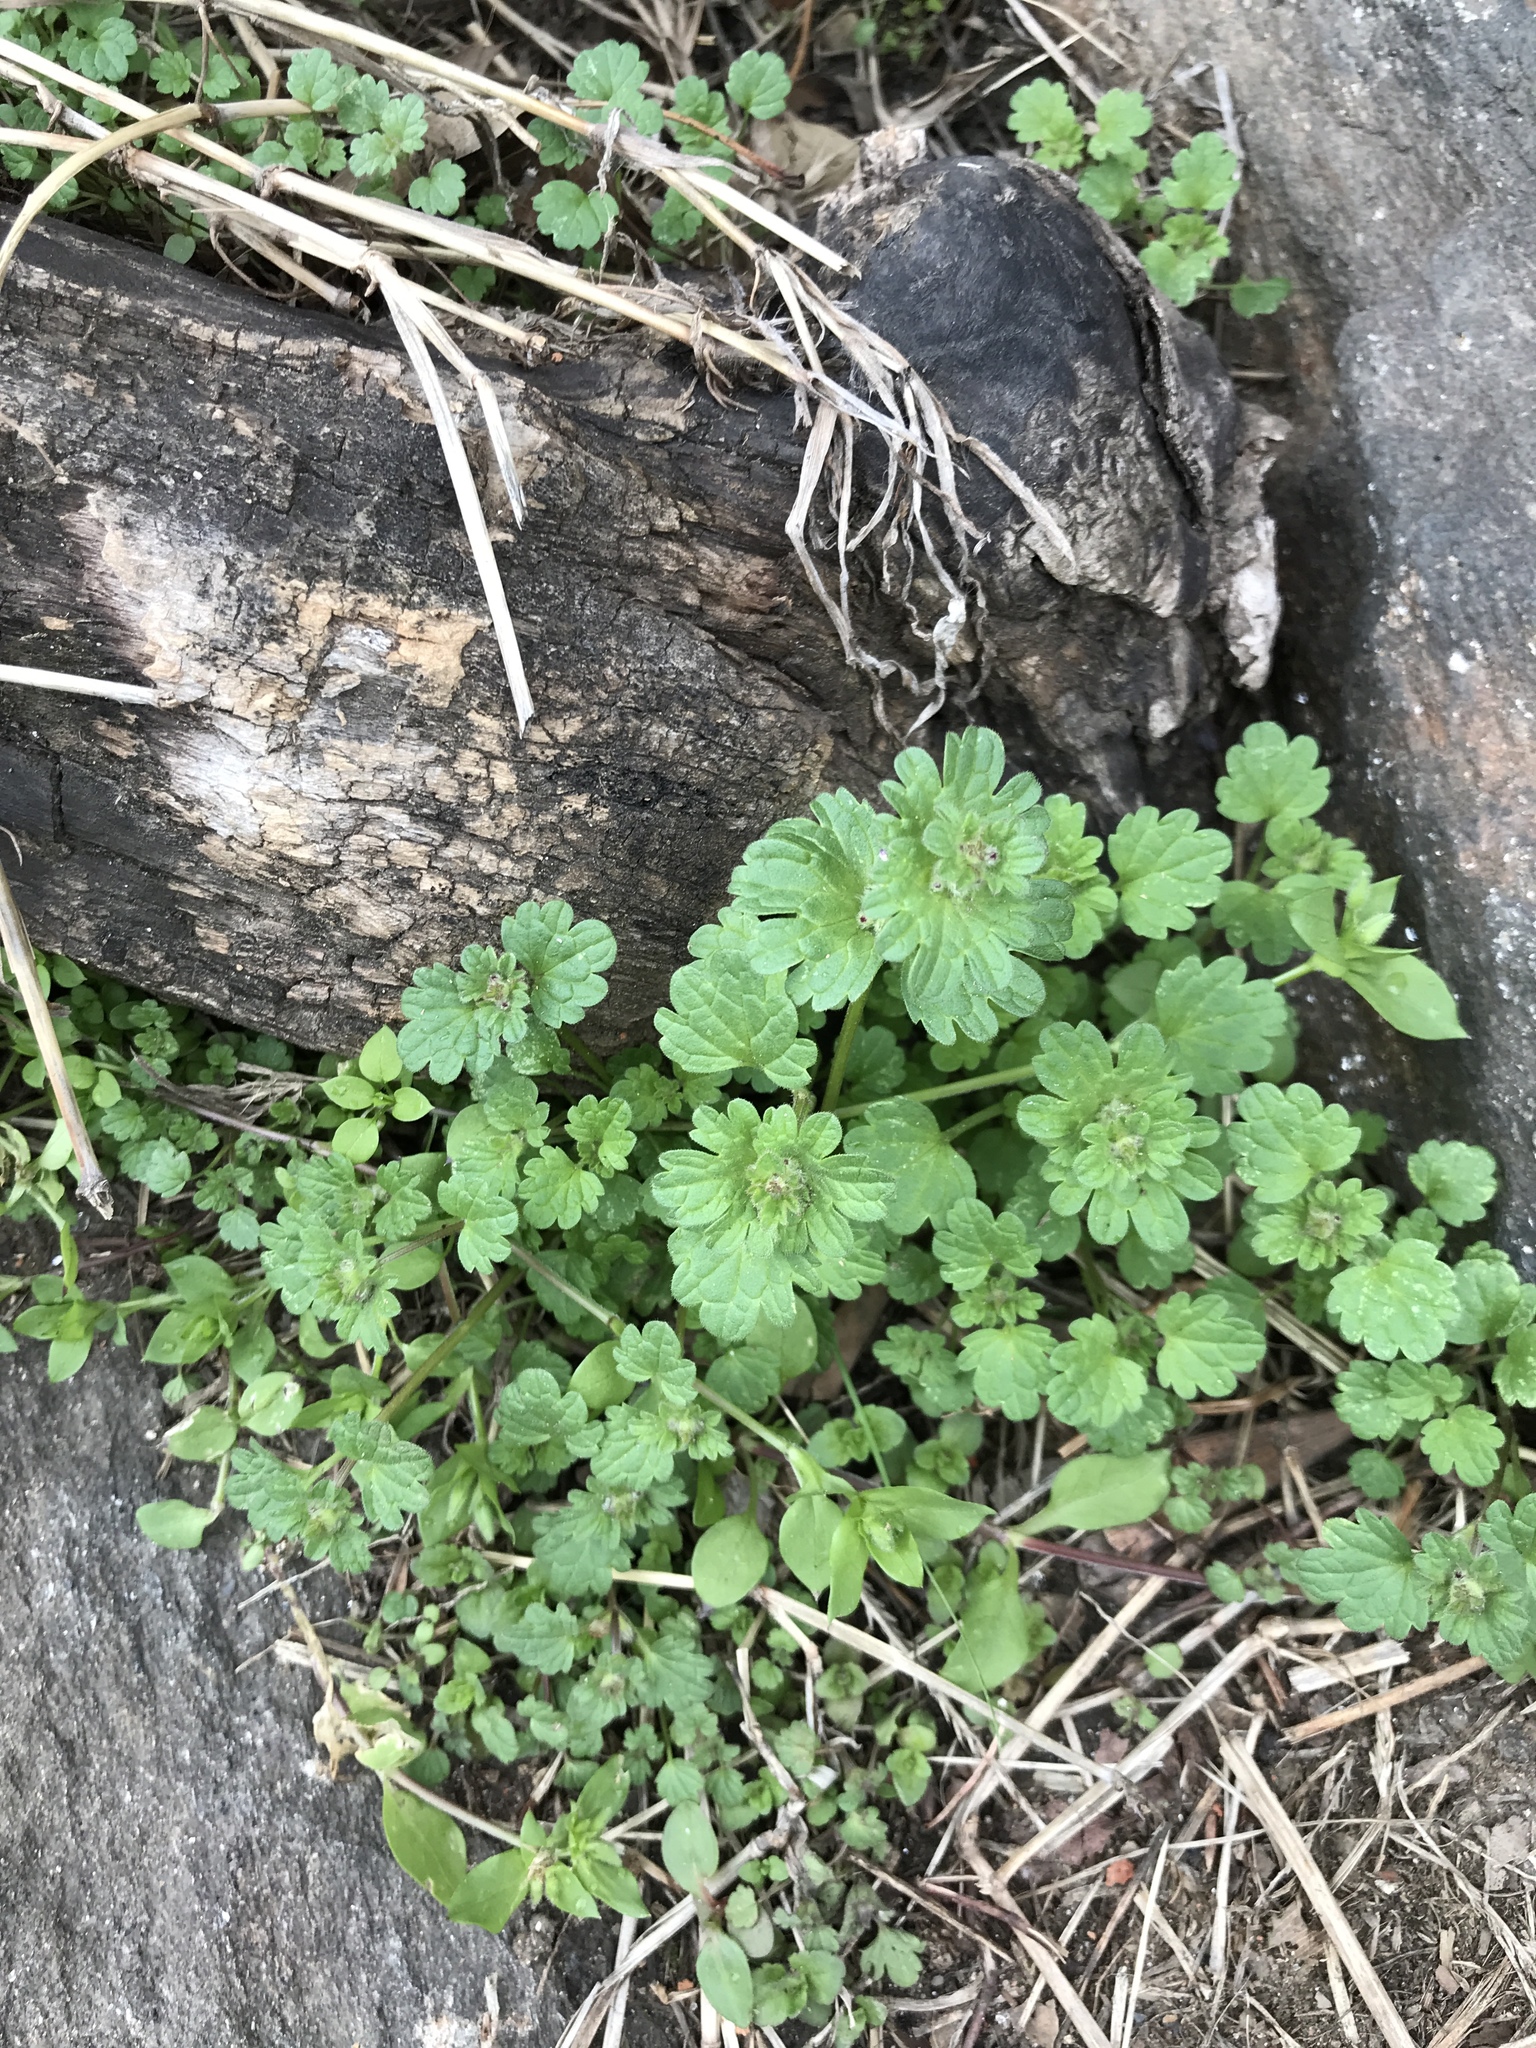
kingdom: Plantae
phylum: Tracheophyta
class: Magnoliopsida
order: Lamiales
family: Lamiaceae
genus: Lamium
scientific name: Lamium amplexicaule
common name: Henbit dead-nettle
